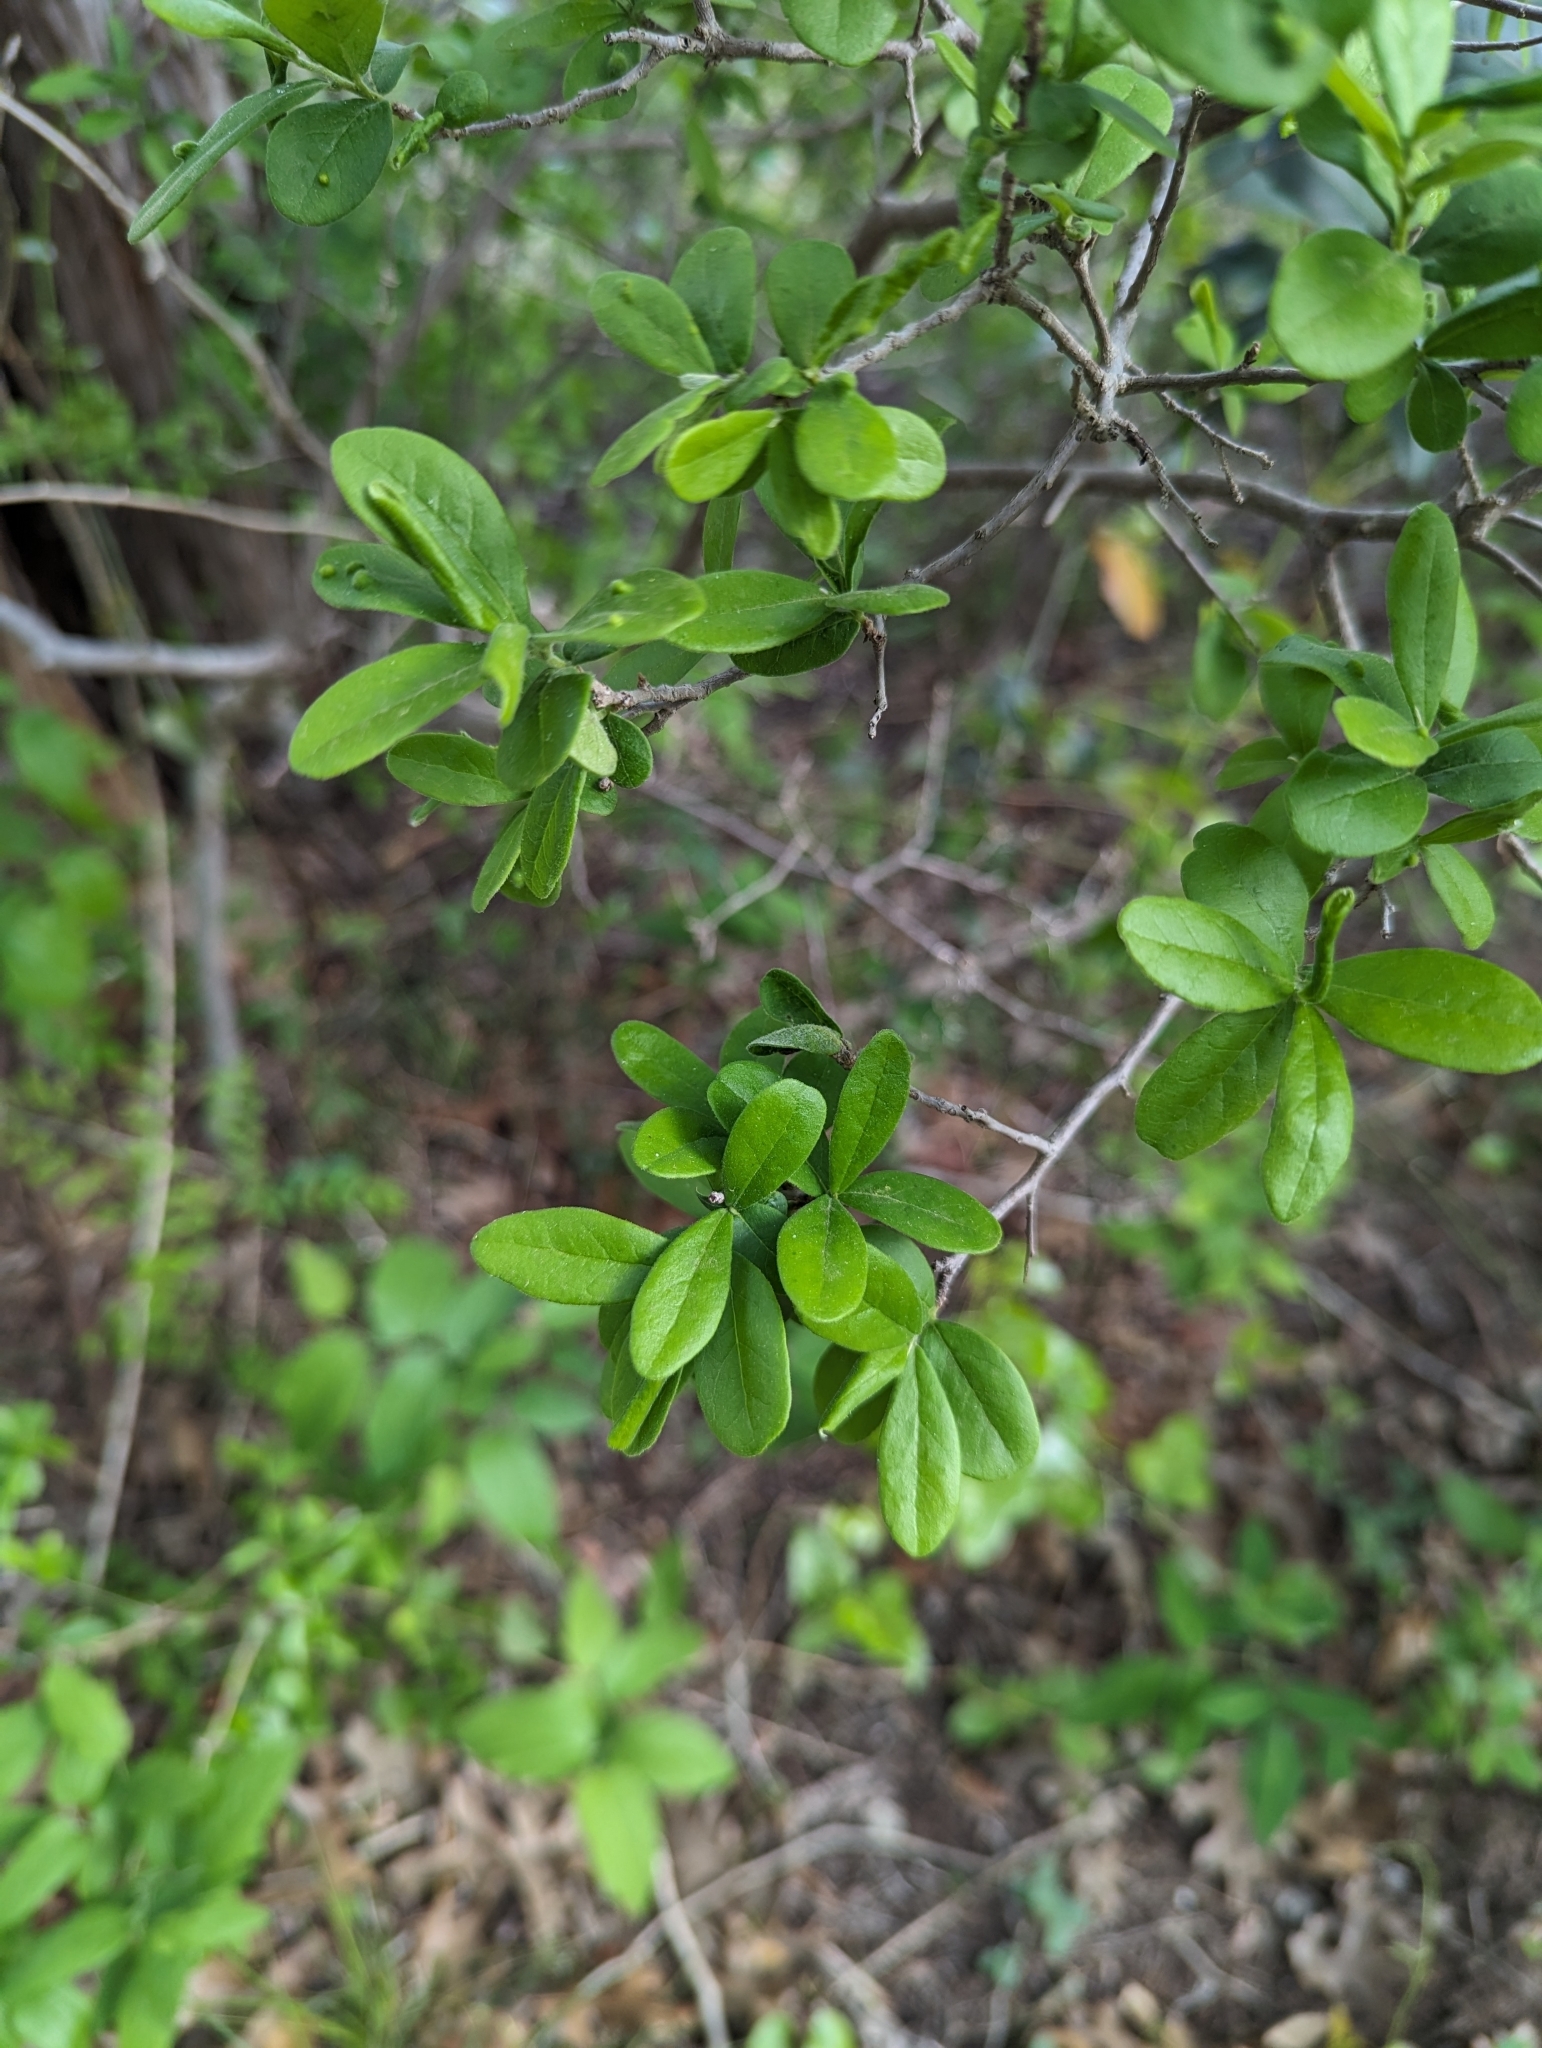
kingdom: Plantae
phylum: Tracheophyta
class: Magnoliopsida
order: Ericales
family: Ebenaceae
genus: Diospyros
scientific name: Diospyros texana
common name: Texas persimmon
